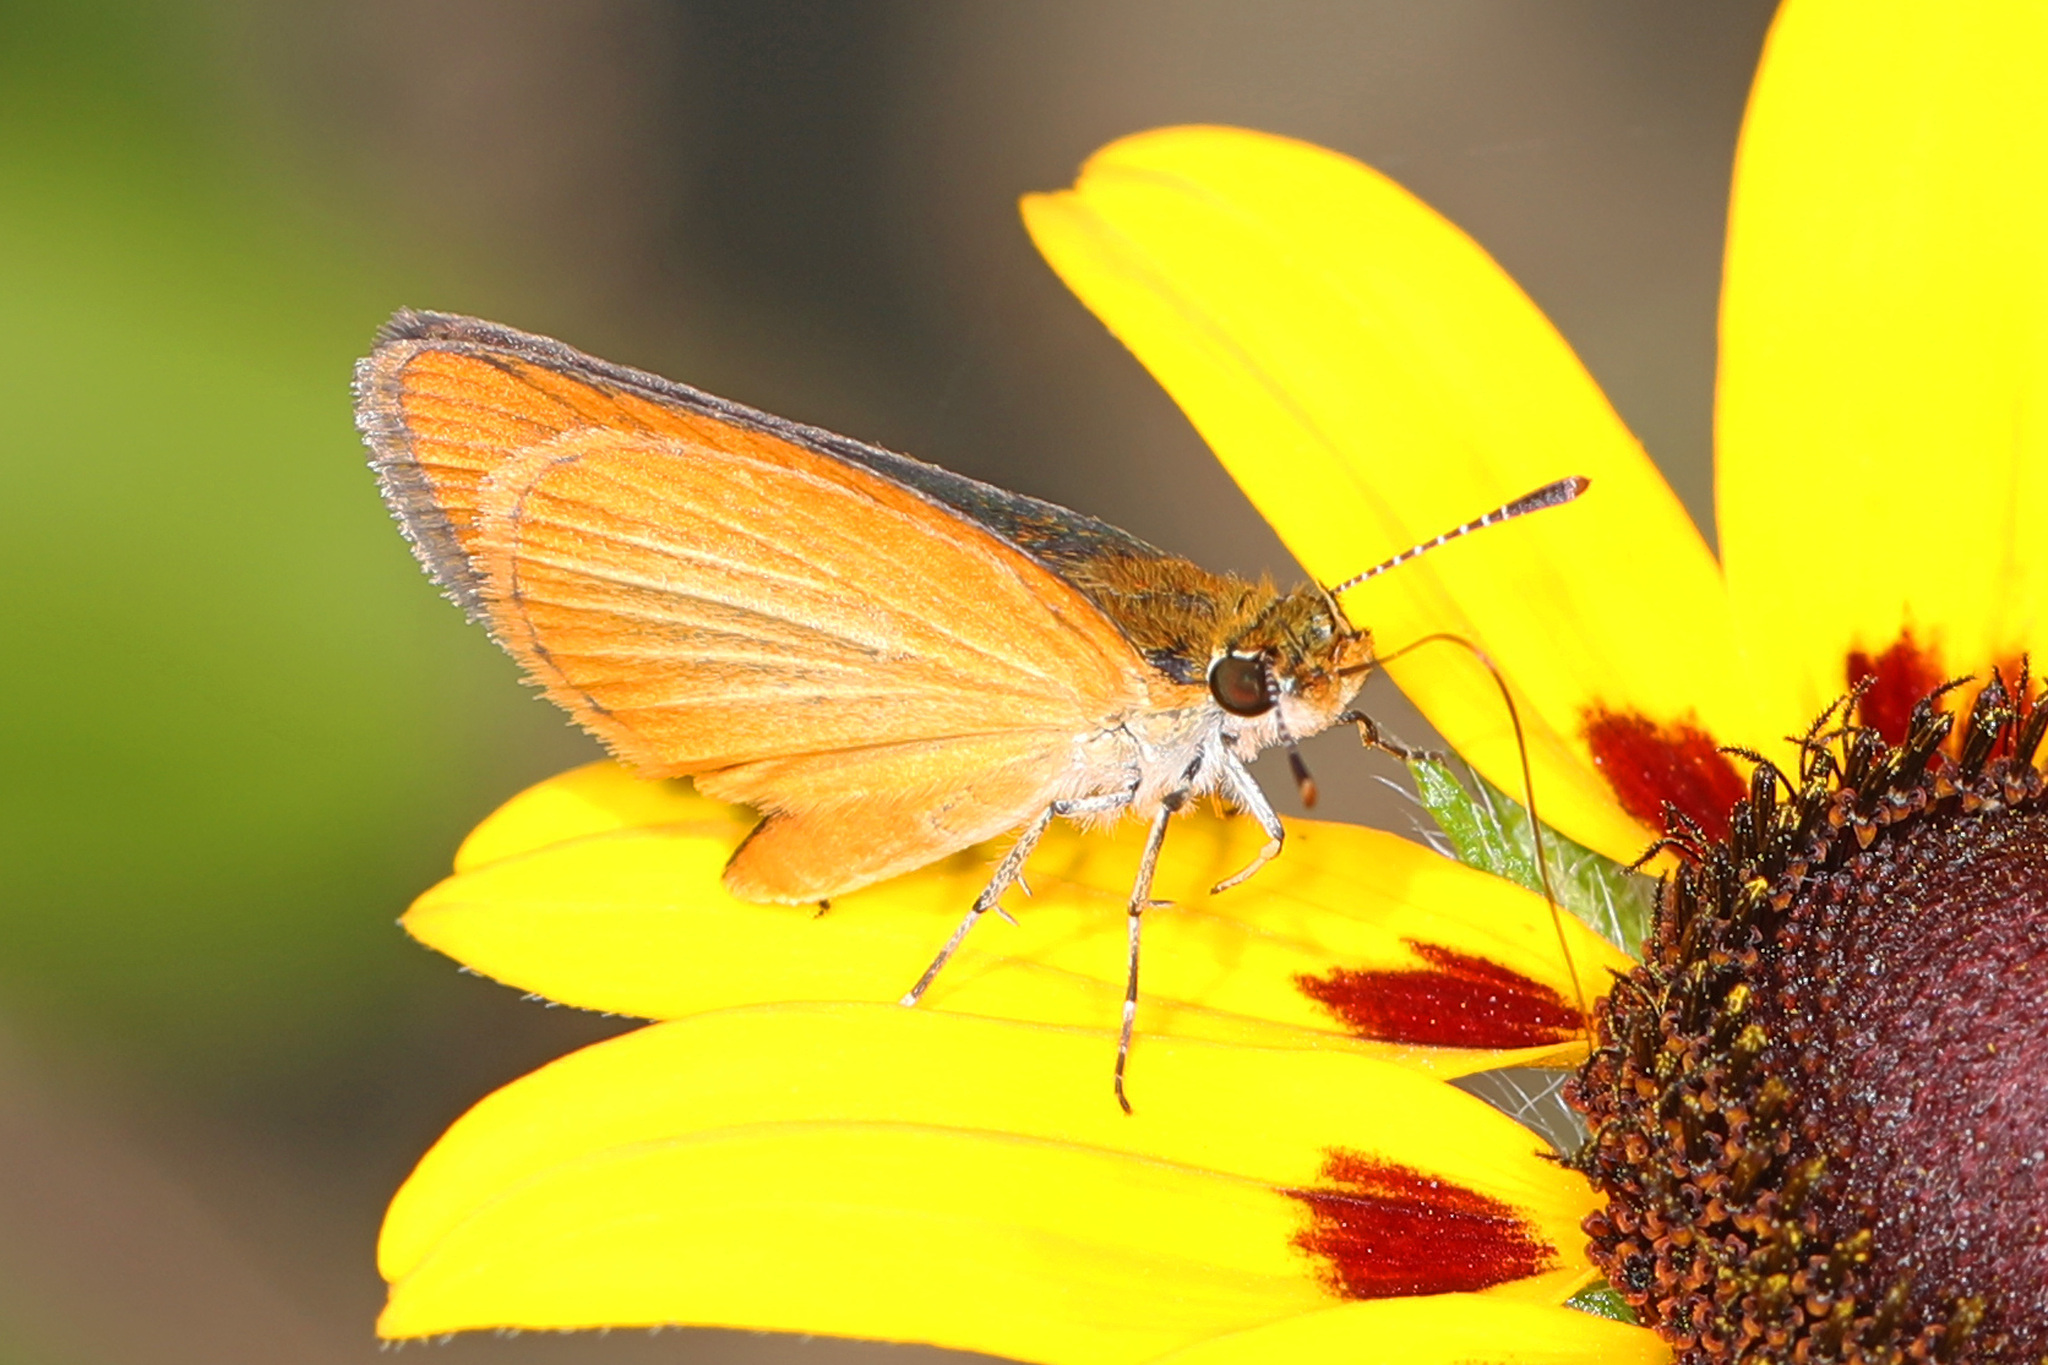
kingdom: Animalia
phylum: Arthropoda
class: Insecta
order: Lepidoptera
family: Hesperiidae
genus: Ancyloxypha
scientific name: Ancyloxypha numitor
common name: Least skipper
